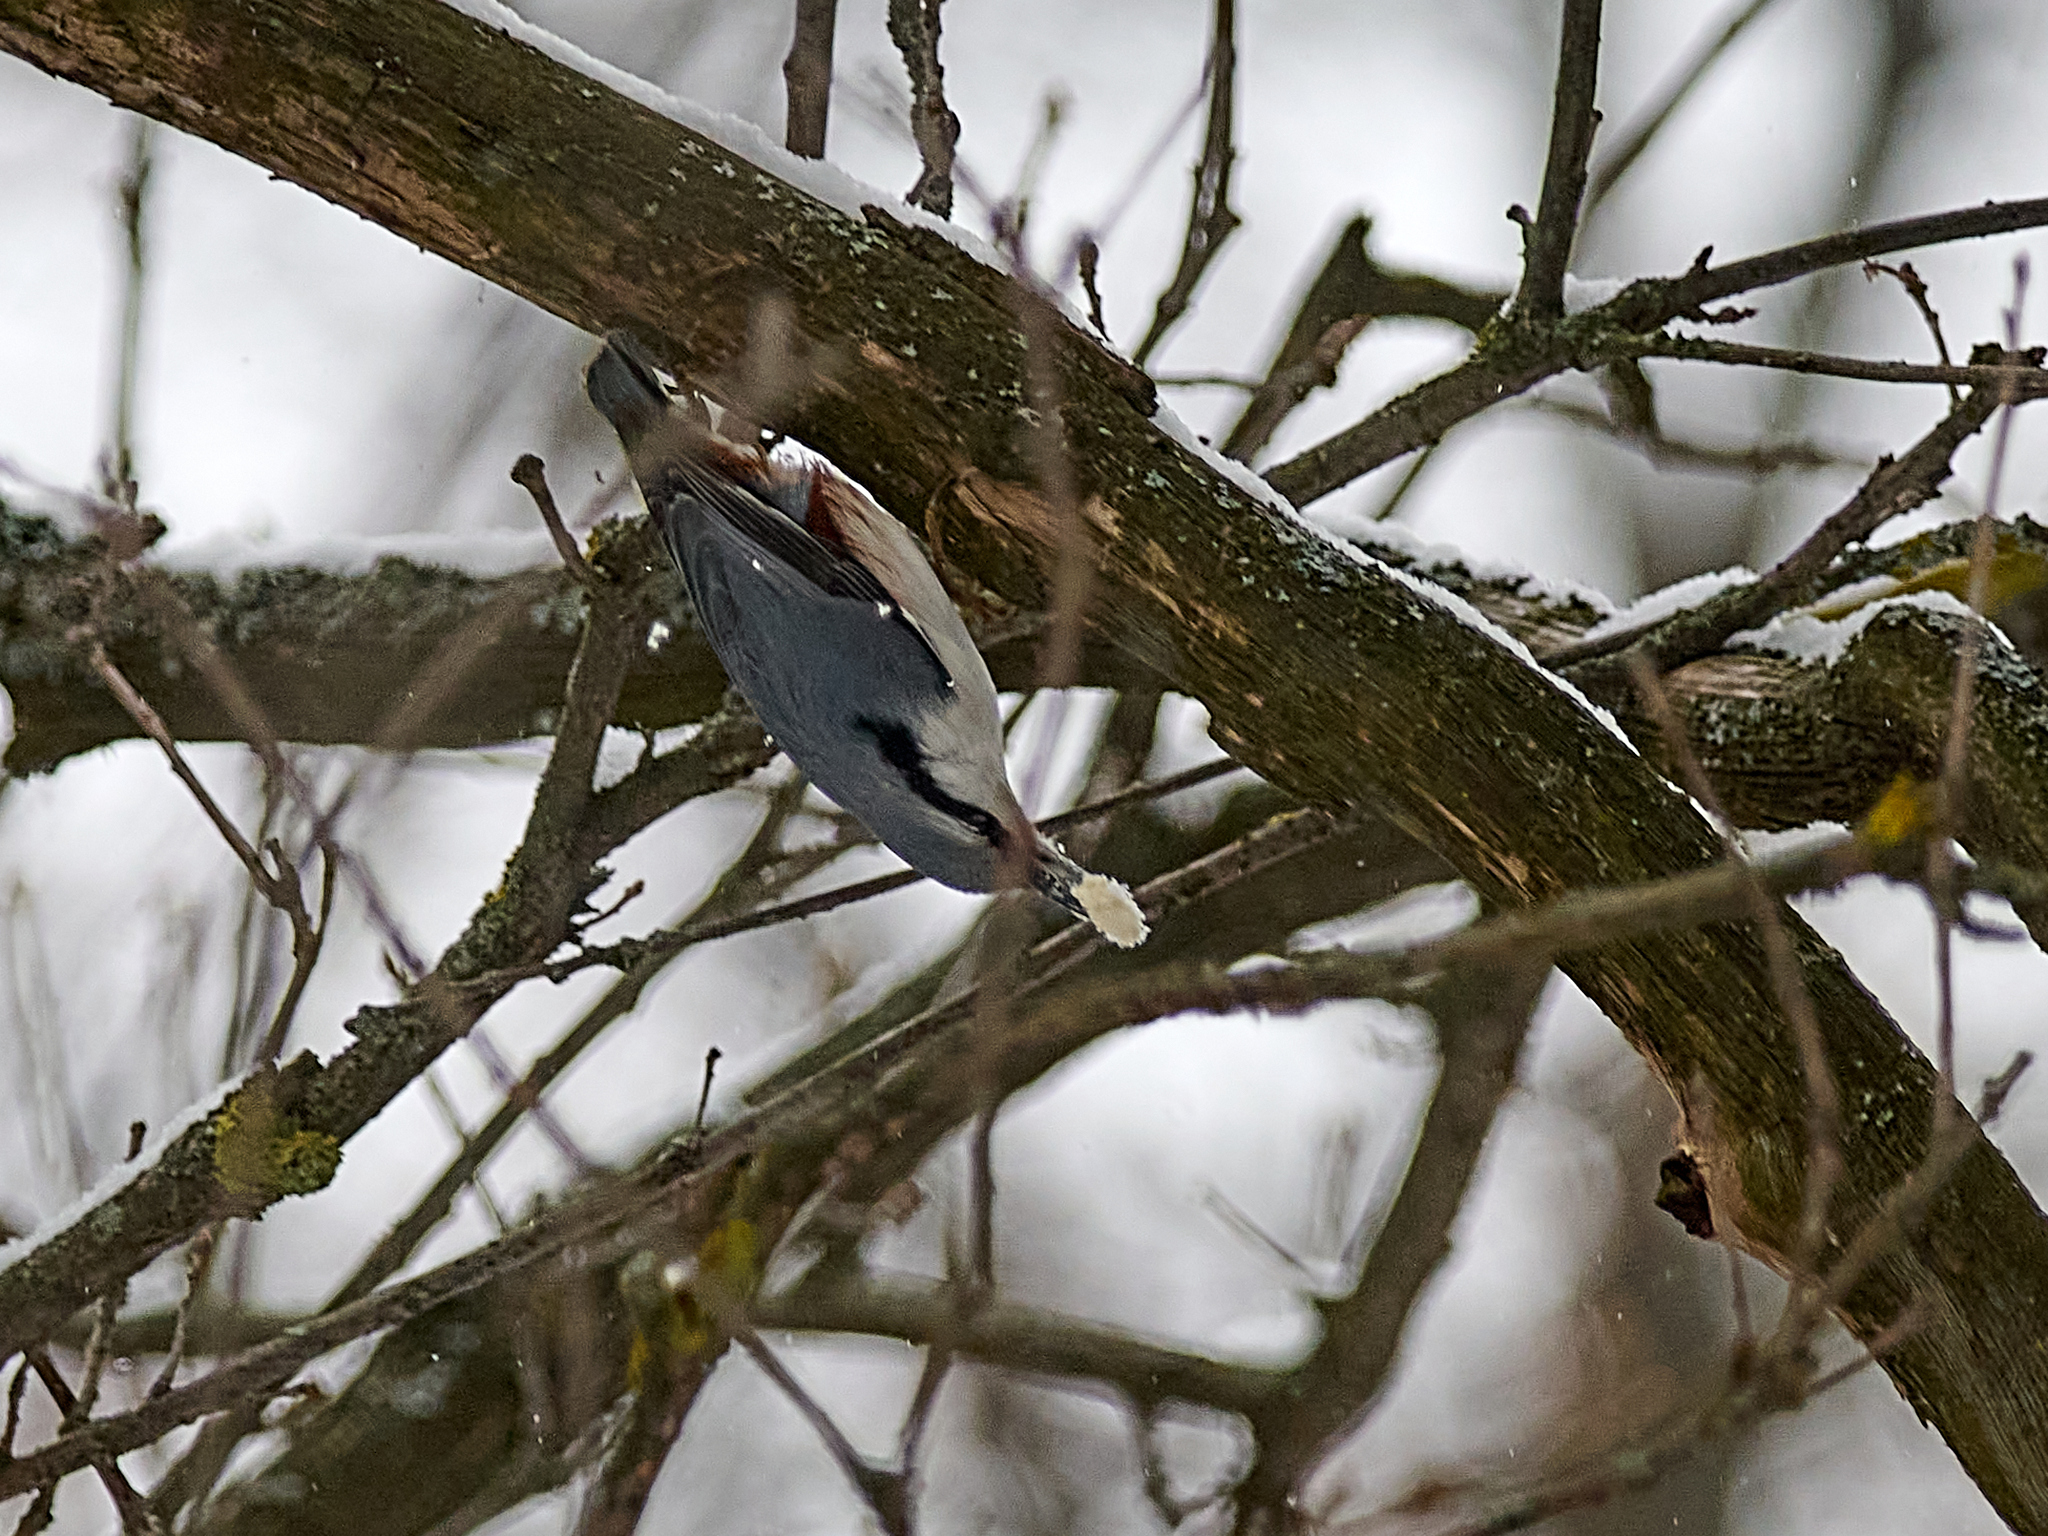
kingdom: Animalia
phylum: Chordata
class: Aves
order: Passeriformes
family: Sittidae
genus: Sitta
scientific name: Sitta europaea
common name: Eurasian nuthatch
